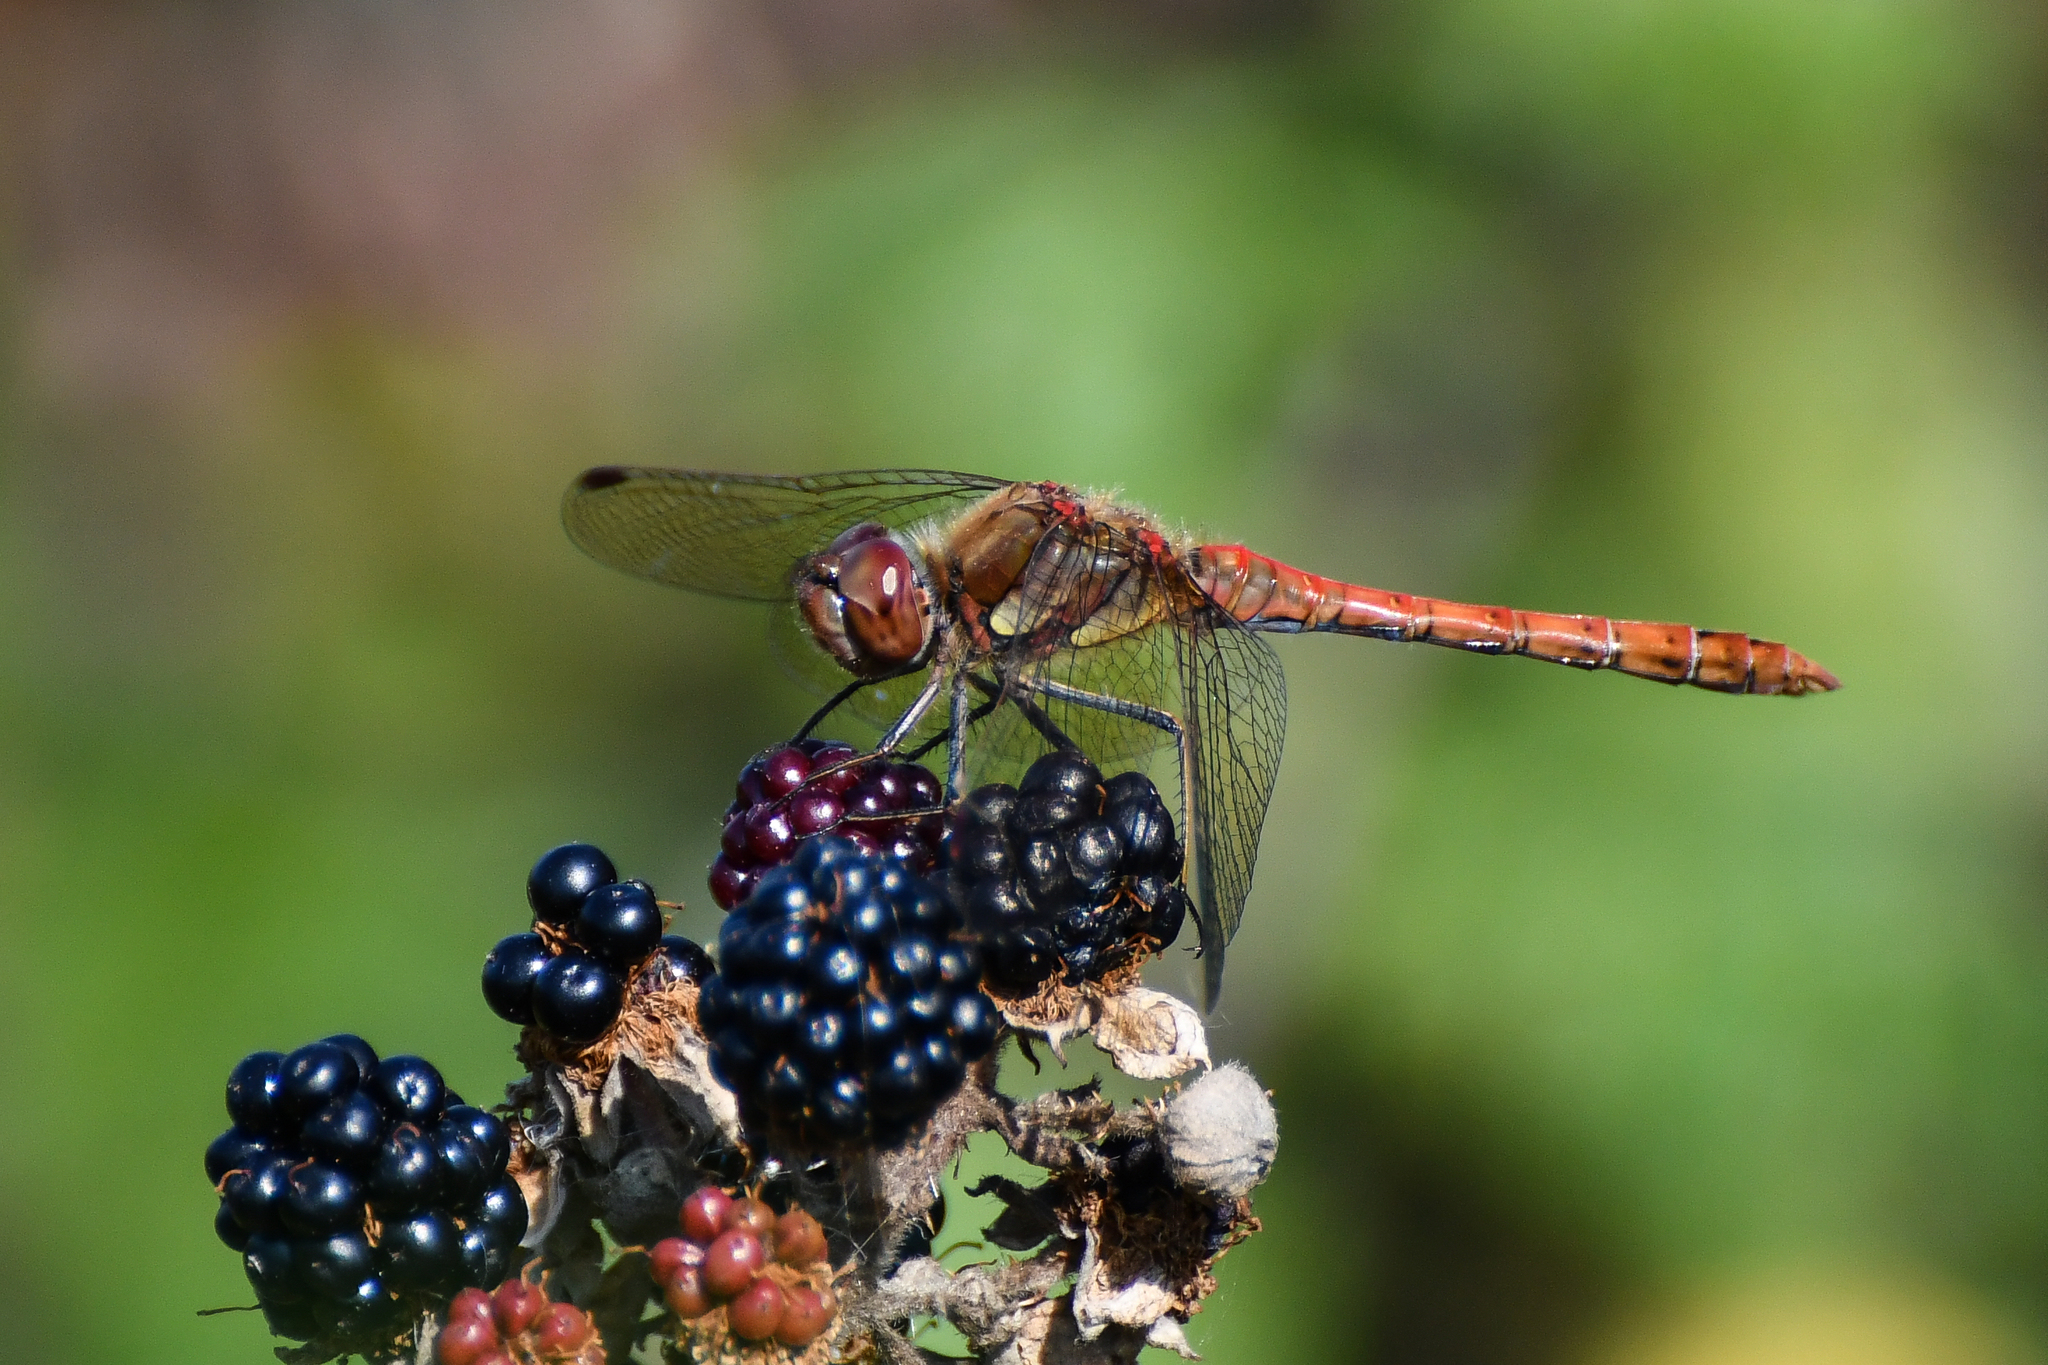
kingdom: Animalia
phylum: Arthropoda
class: Insecta
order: Odonata
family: Libellulidae
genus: Sympetrum
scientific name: Sympetrum striolatum
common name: Common darter
